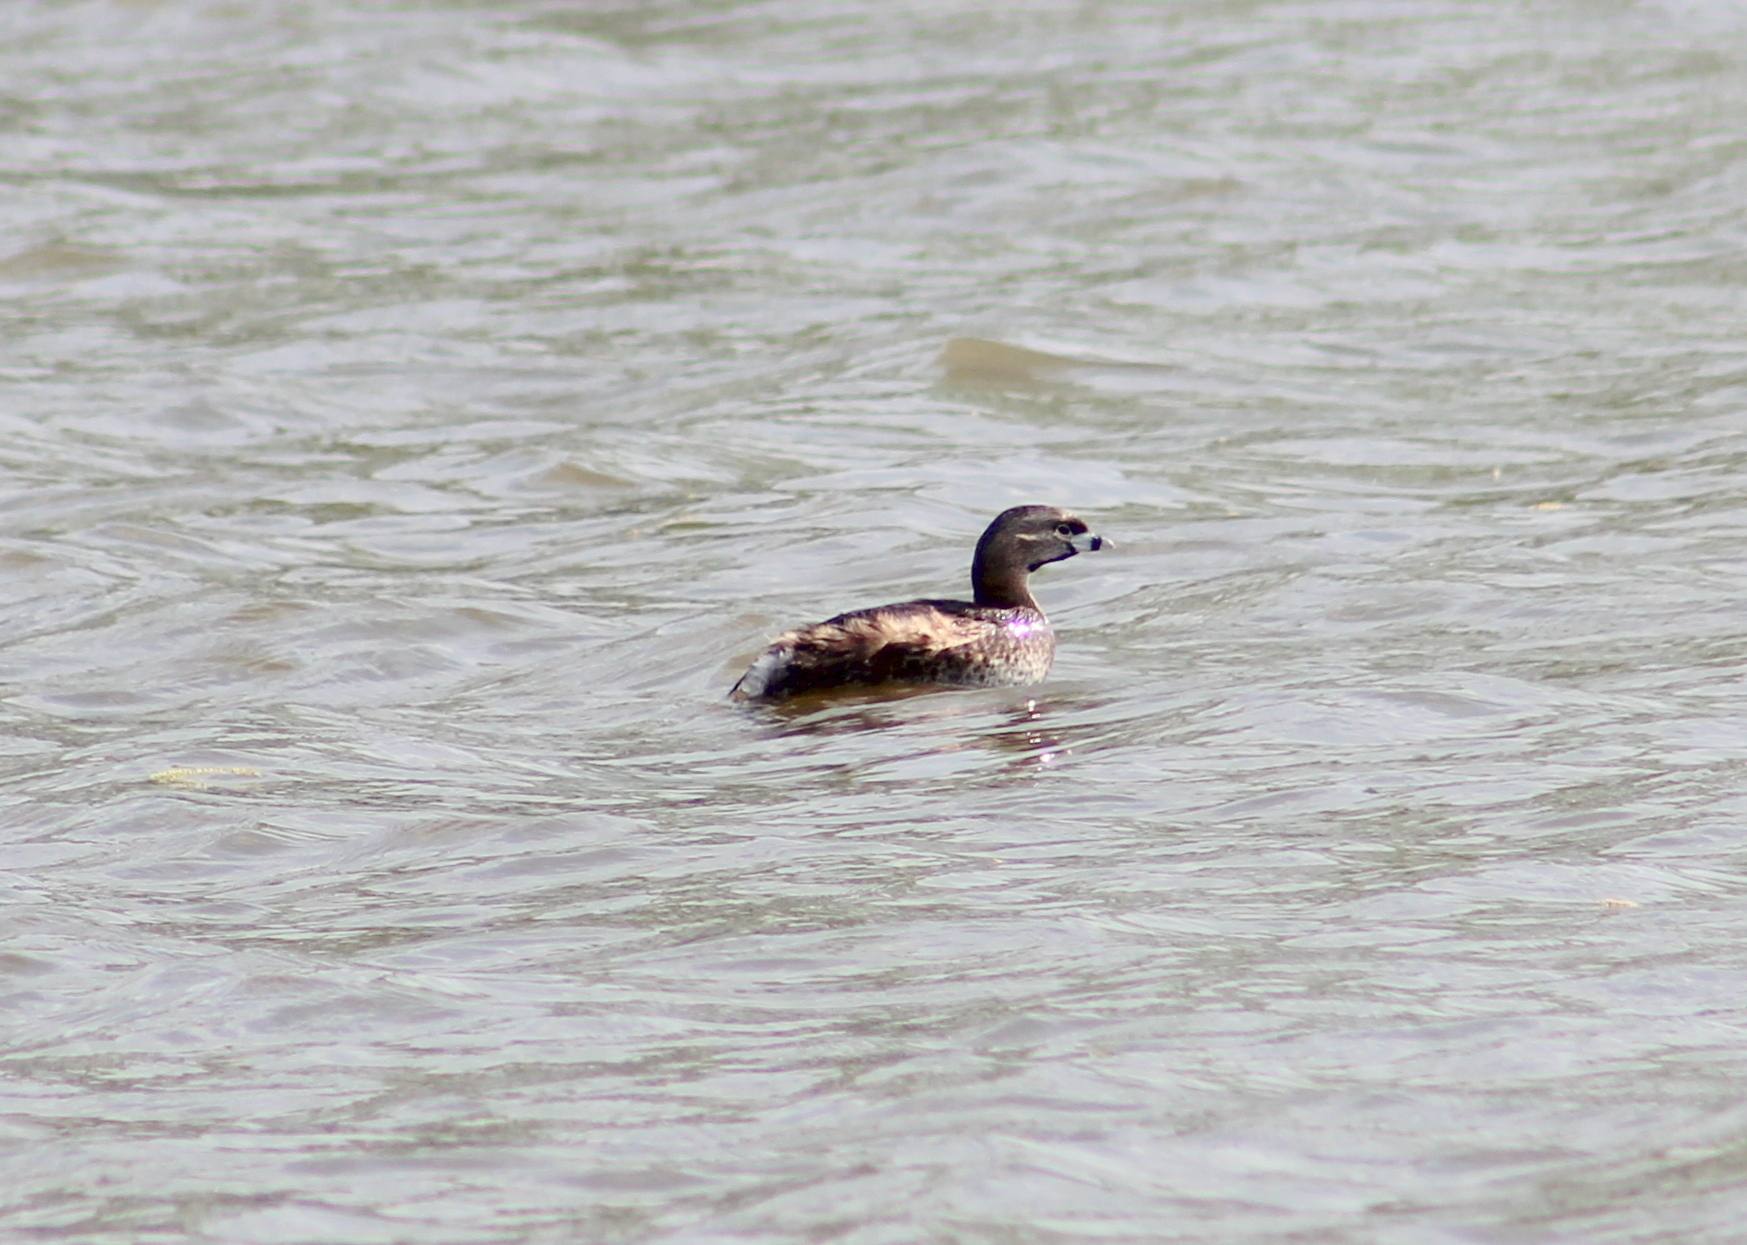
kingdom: Animalia
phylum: Chordata
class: Aves
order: Podicipediformes
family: Podicipedidae
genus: Podilymbus
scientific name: Podilymbus podiceps
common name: Pied-billed grebe
